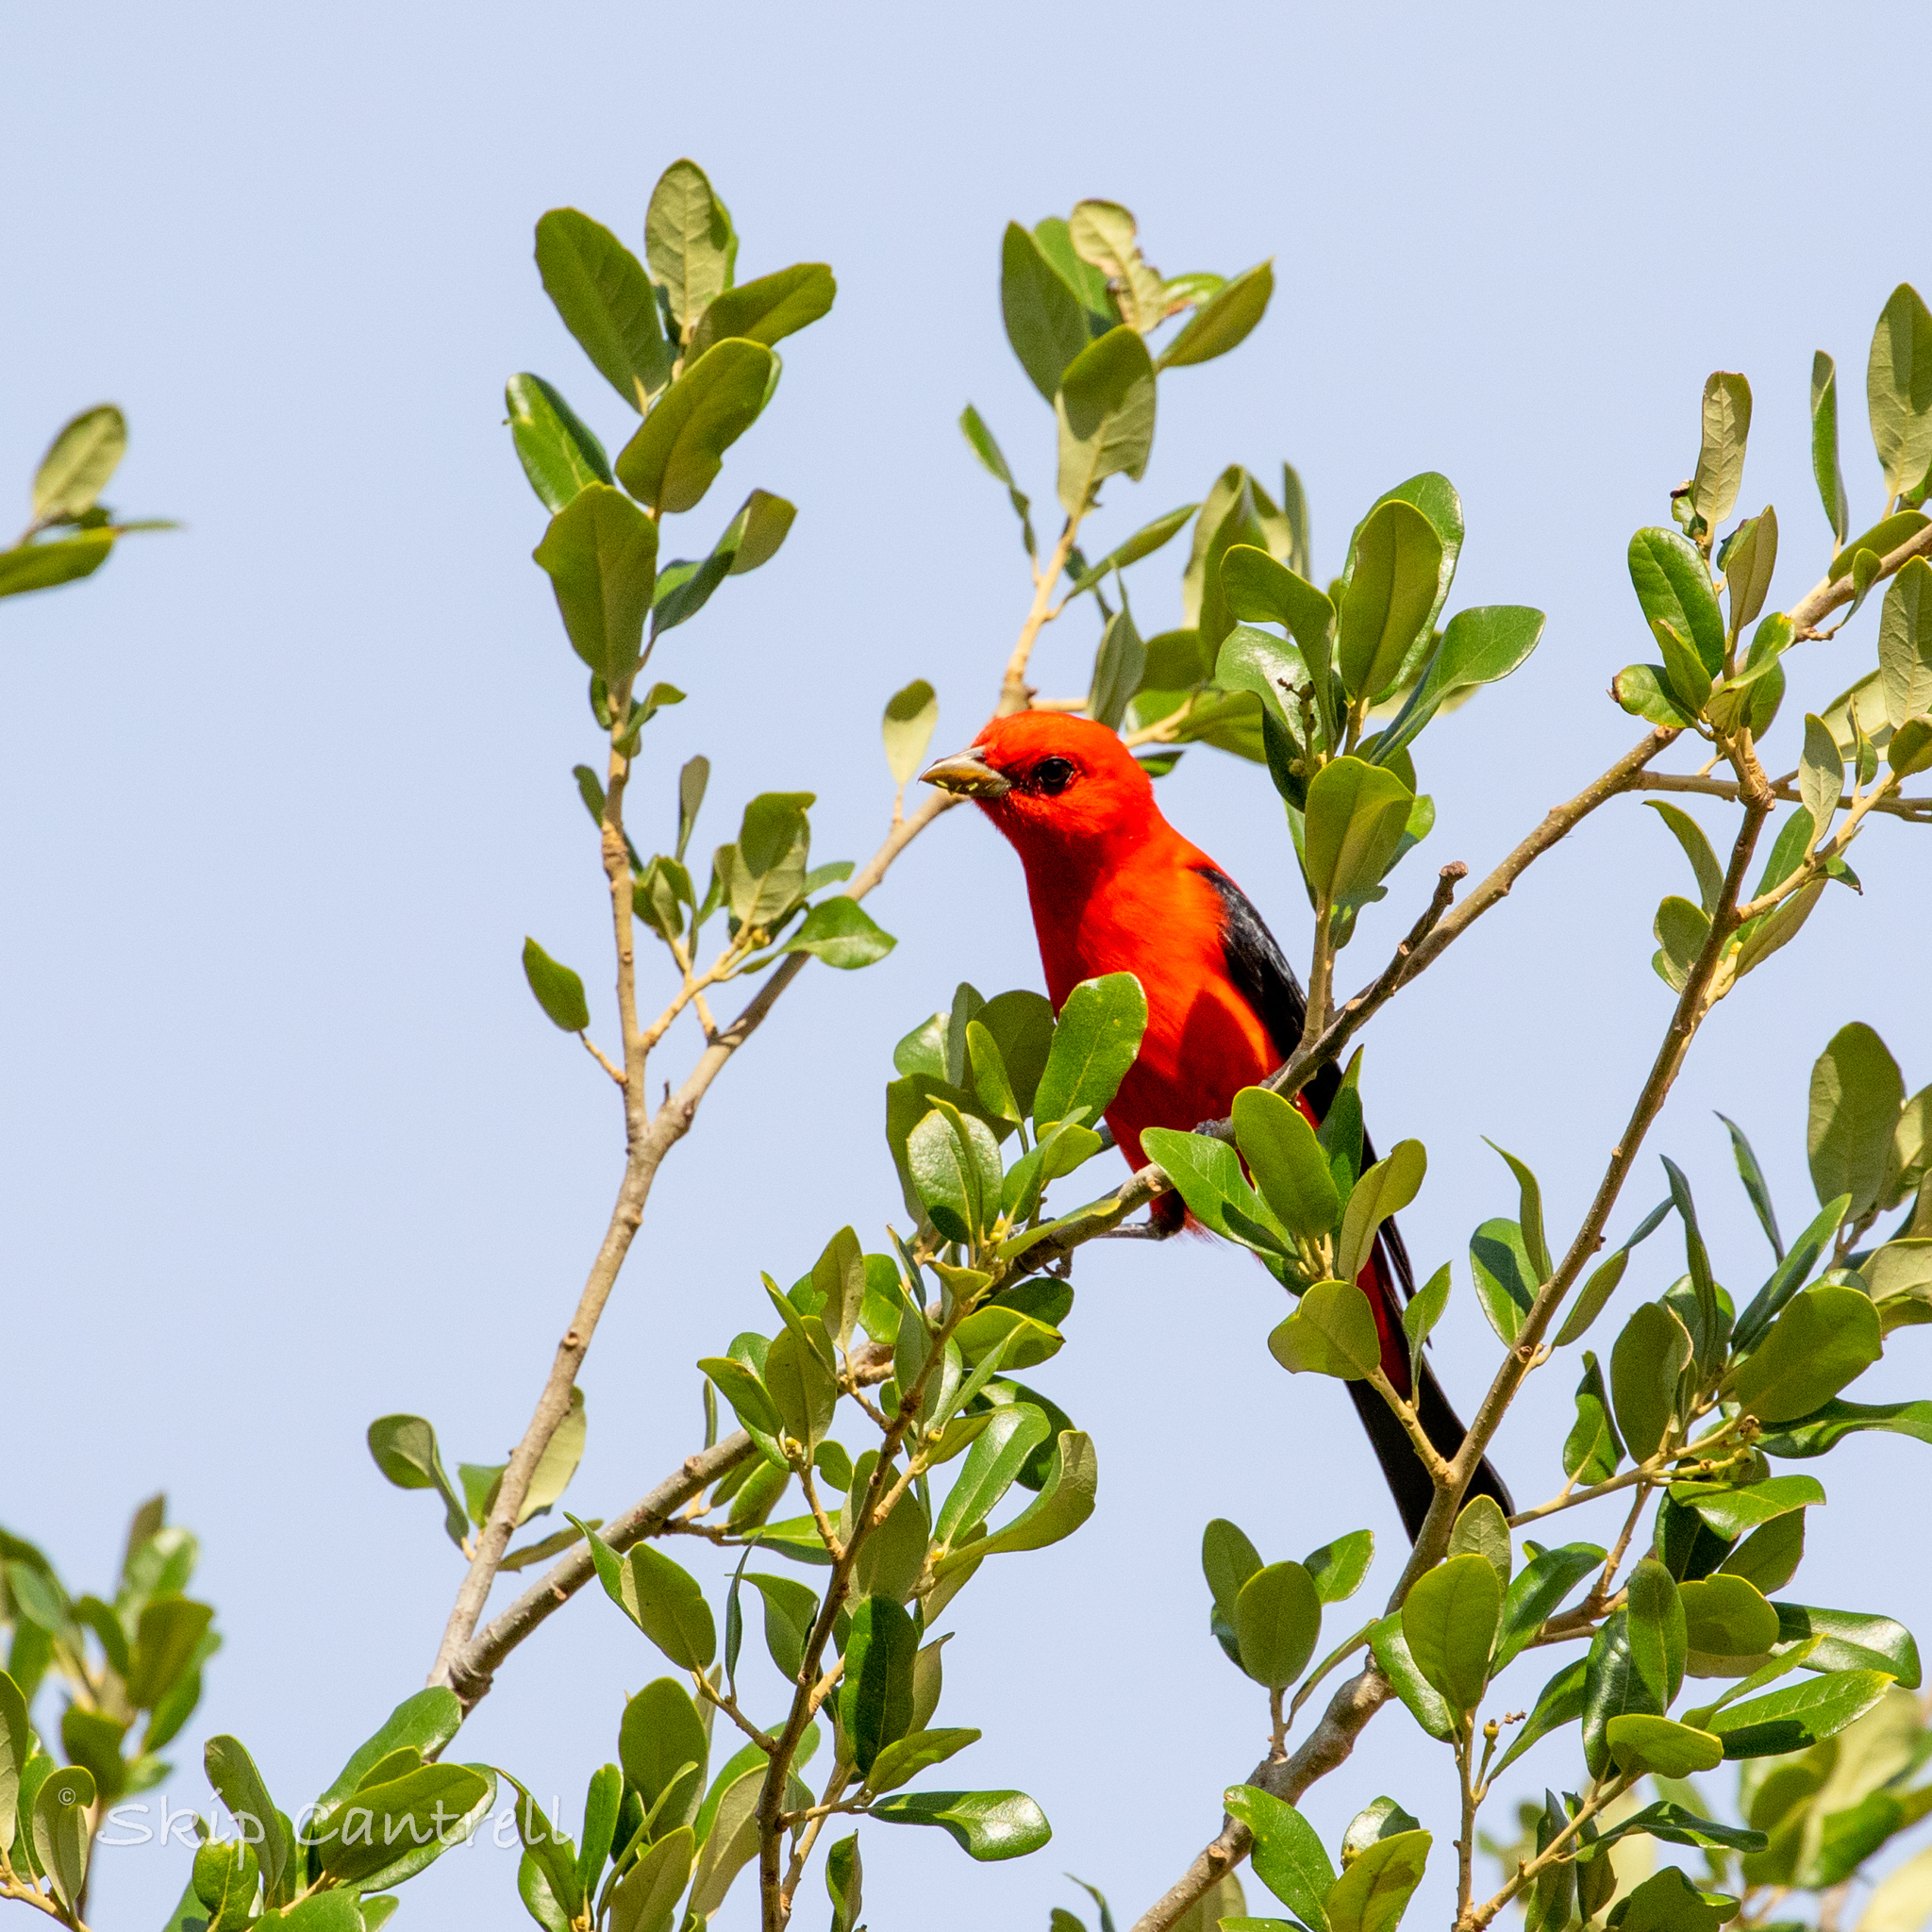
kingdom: Animalia
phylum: Chordata
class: Aves
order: Passeriformes
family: Cardinalidae
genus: Piranga
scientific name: Piranga olivacea
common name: Scarlet tanager
